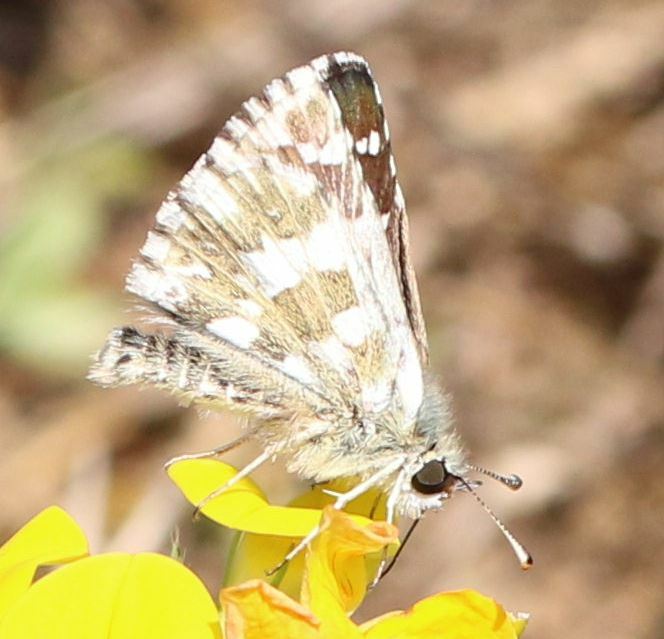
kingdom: Animalia
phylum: Arthropoda
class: Insecta
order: Lepidoptera
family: Hesperiidae
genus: Pyrgus
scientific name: Pyrgus armoricanus
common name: Oberthür's grizzled skipper
